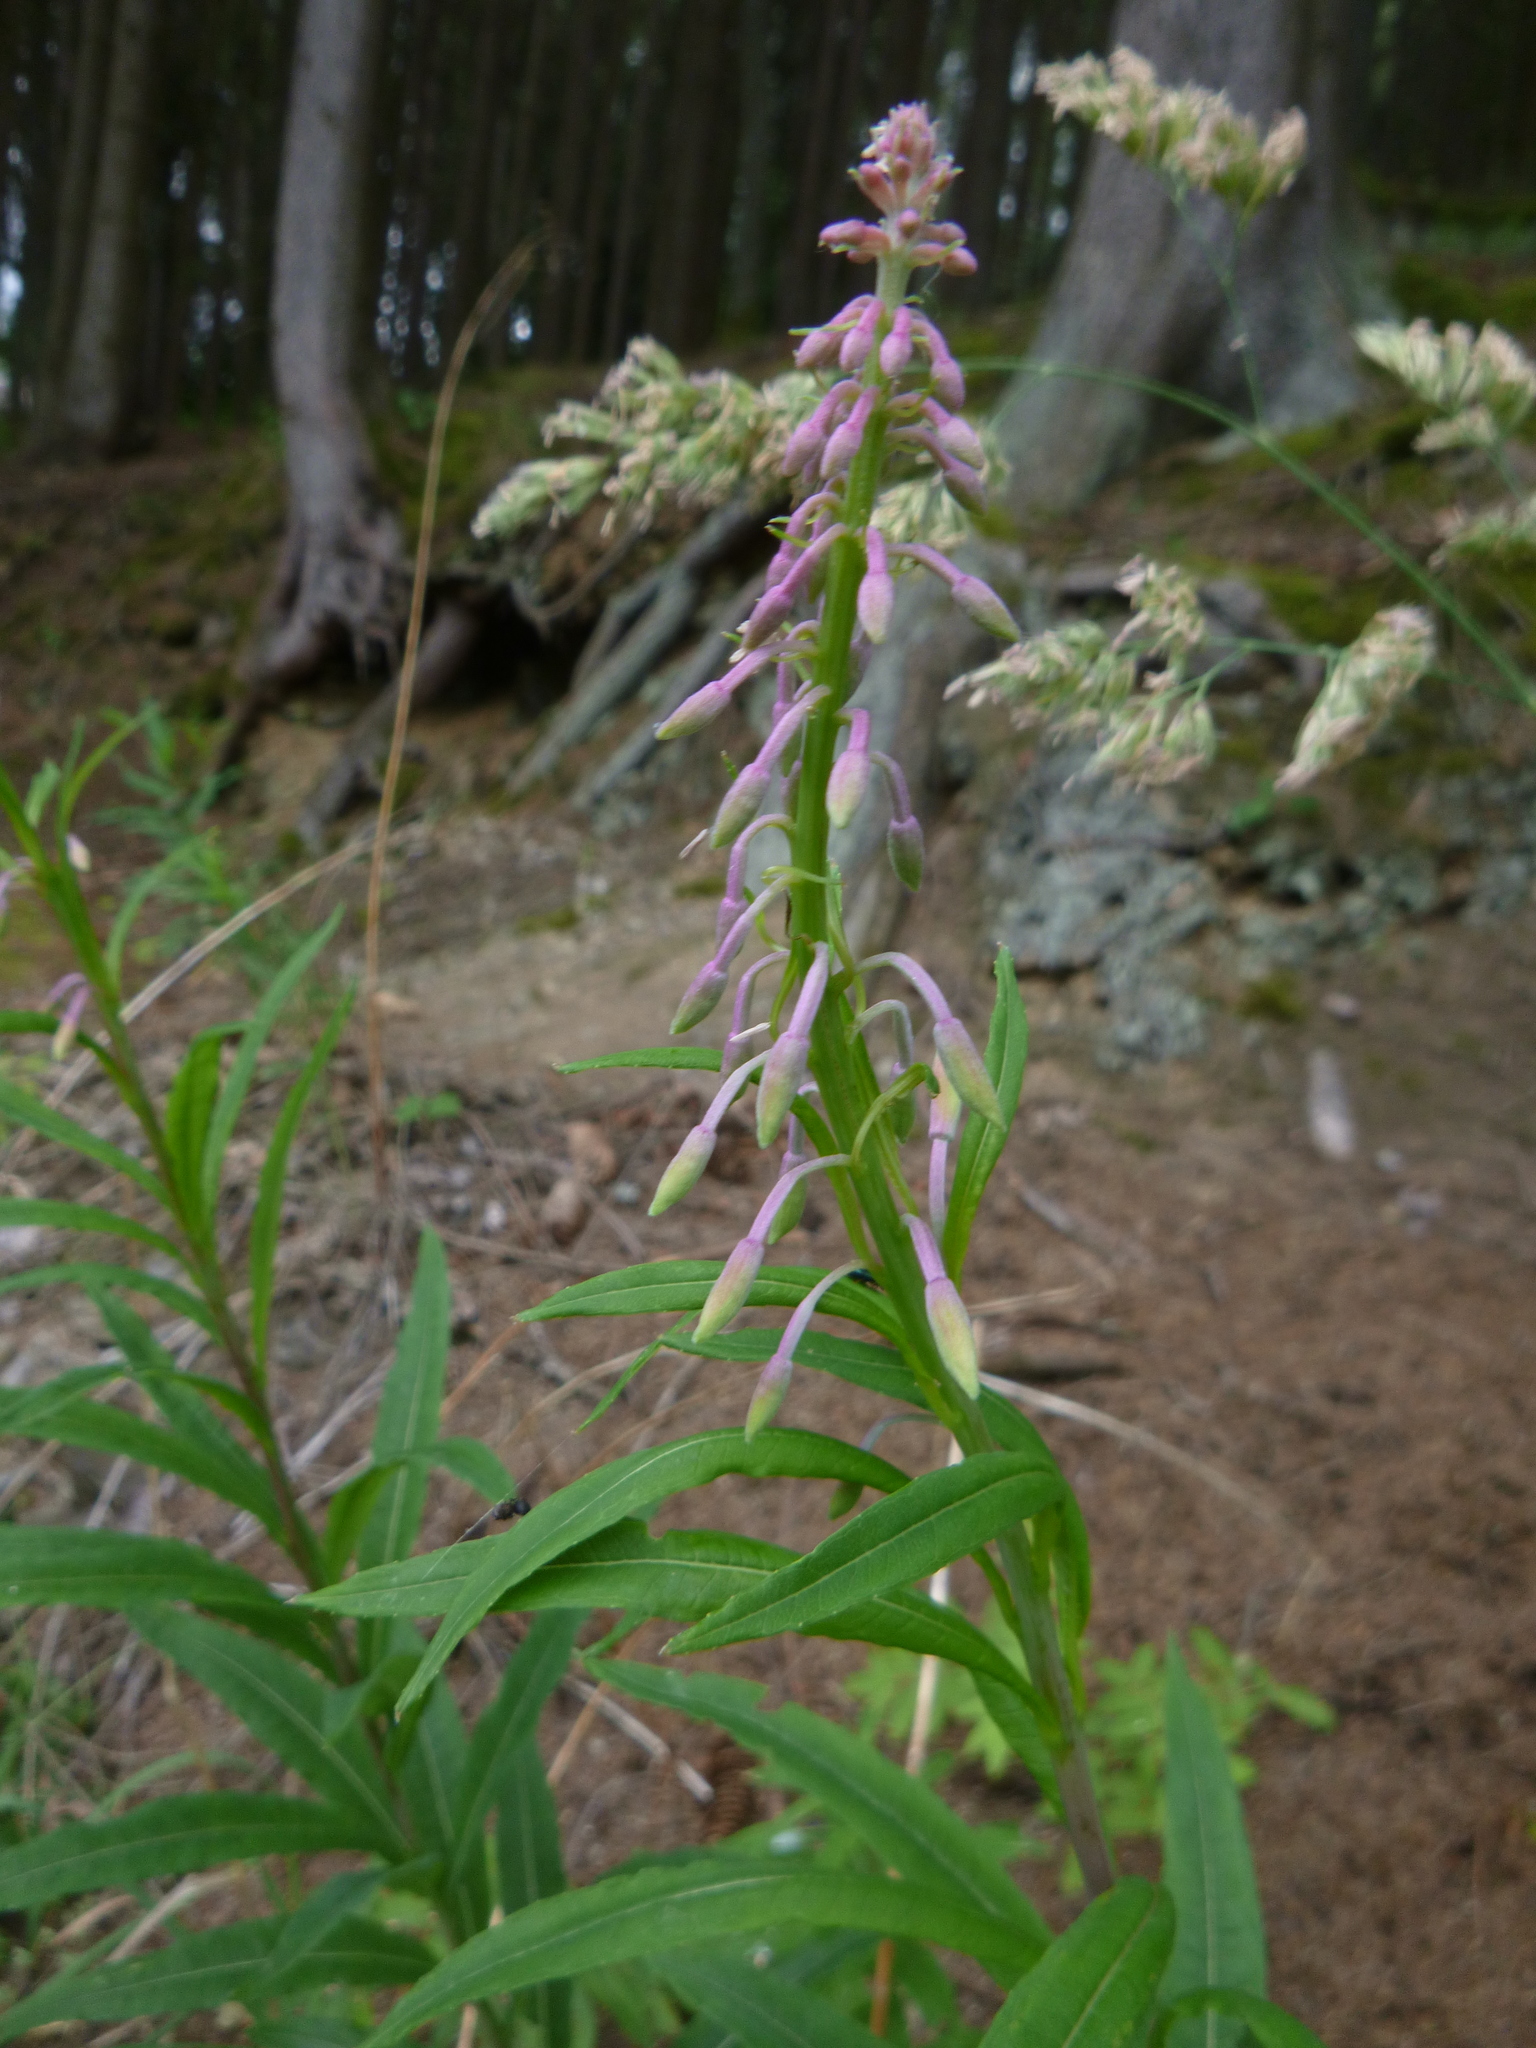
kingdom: Plantae
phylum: Tracheophyta
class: Magnoliopsida
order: Myrtales
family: Onagraceae
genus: Chamaenerion
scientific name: Chamaenerion angustifolium
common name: Fireweed
